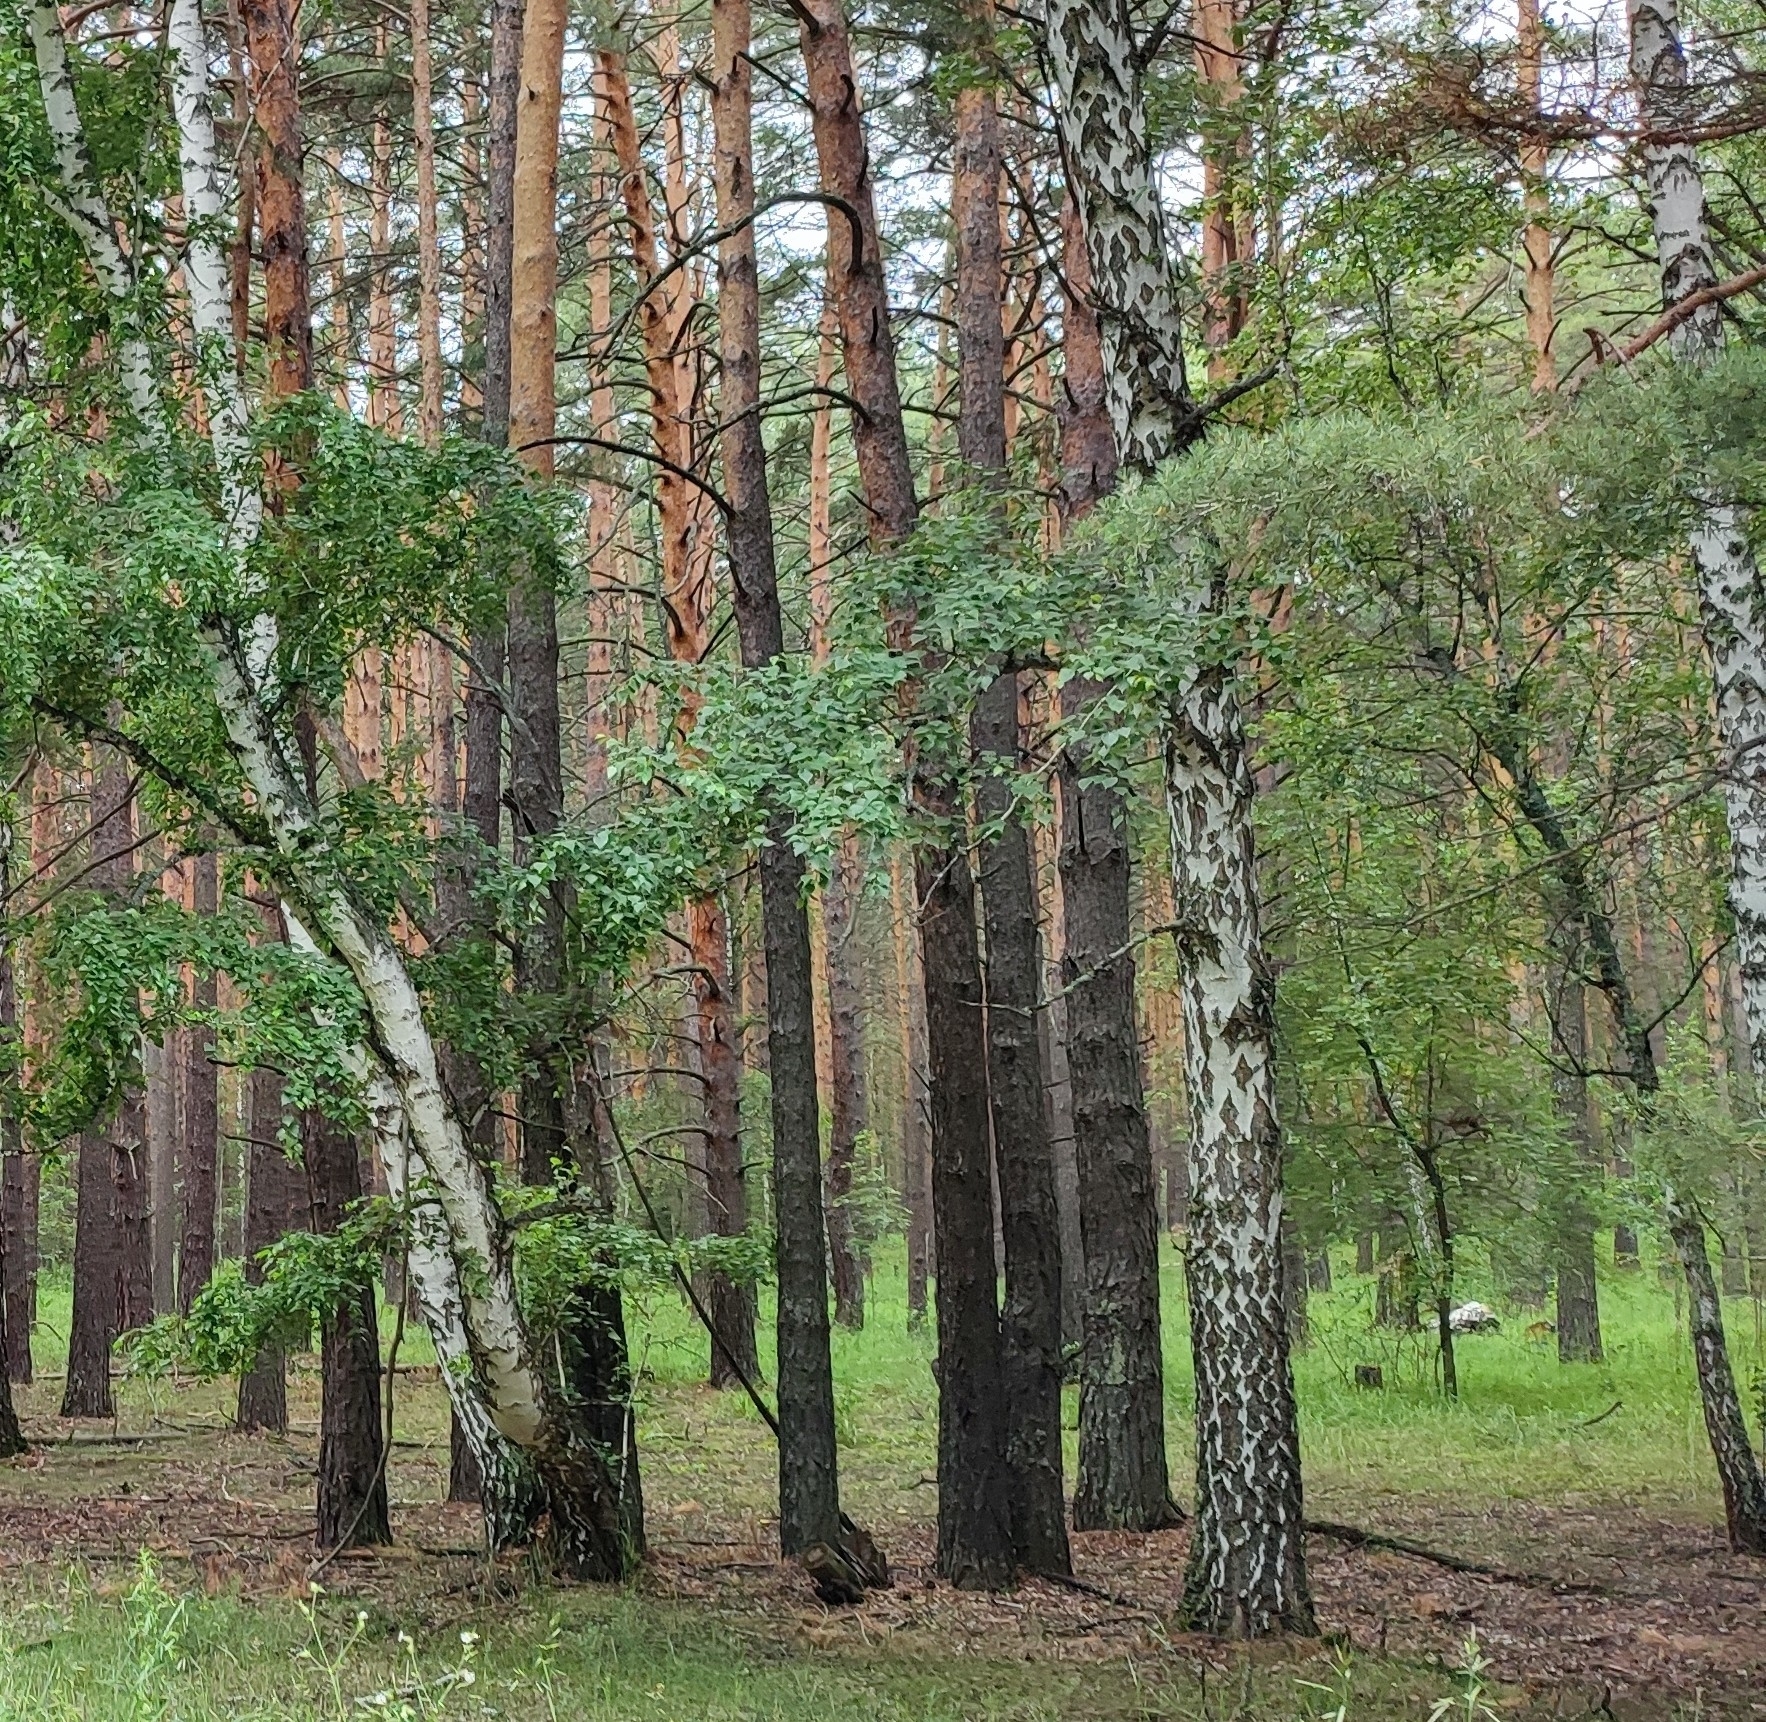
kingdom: Plantae
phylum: Tracheophyta
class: Magnoliopsida
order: Fagales
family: Betulaceae
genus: Betula
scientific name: Betula pendula
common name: Silver birch
